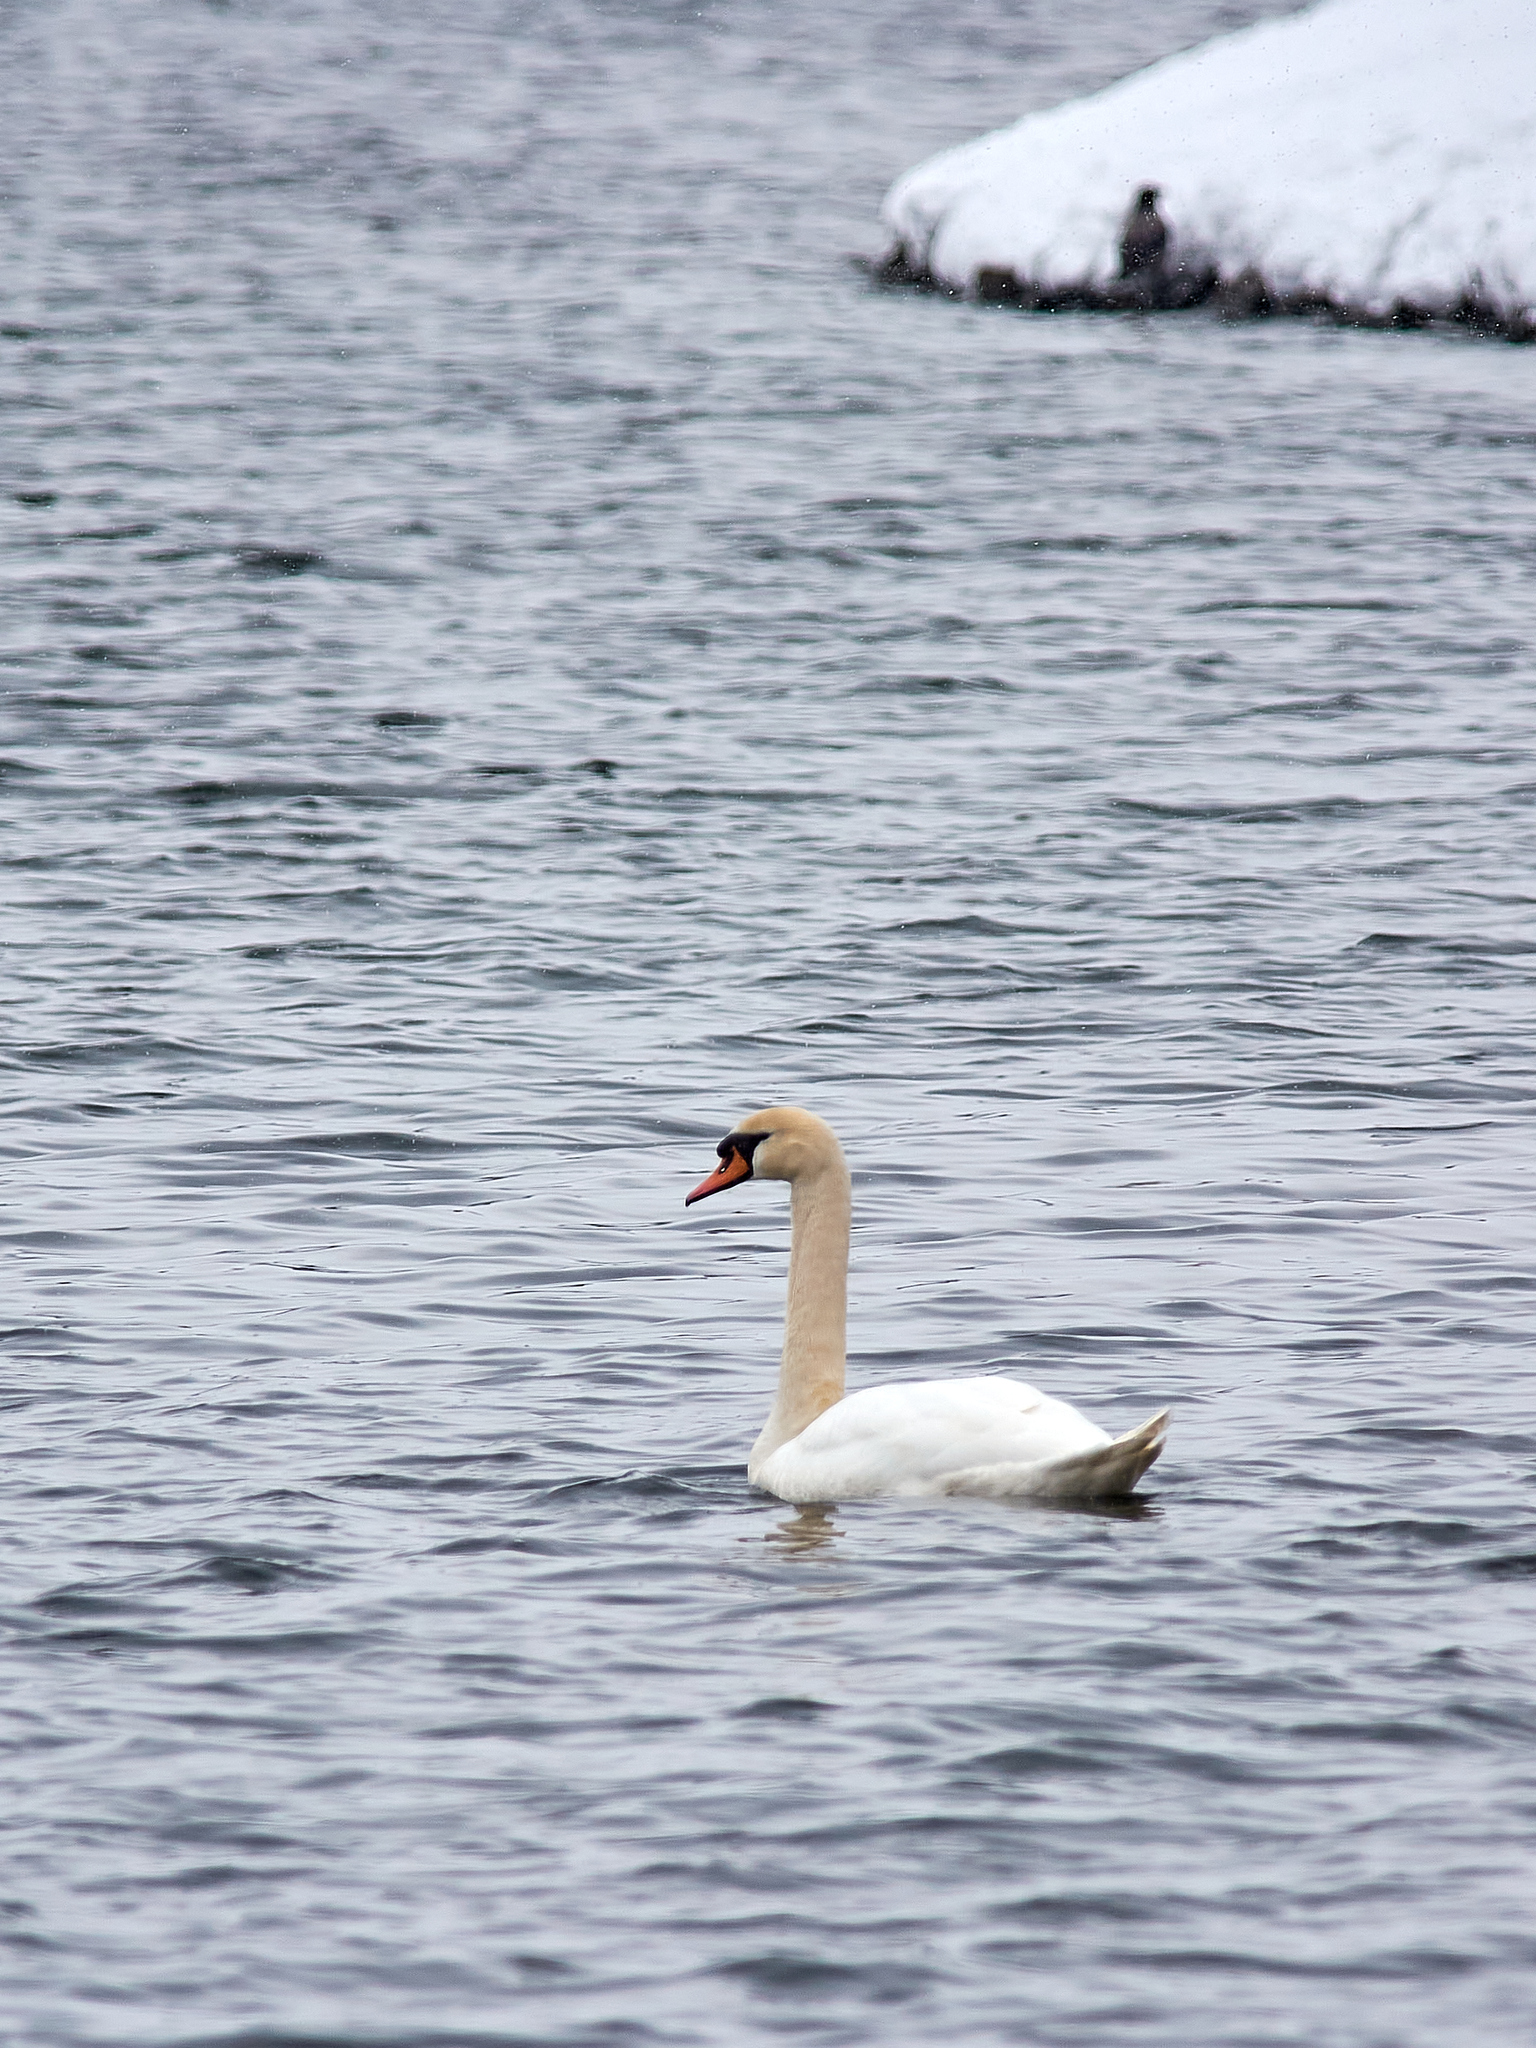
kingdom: Animalia
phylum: Chordata
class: Aves
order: Anseriformes
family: Anatidae
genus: Cygnus
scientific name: Cygnus olor
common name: Mute swan
